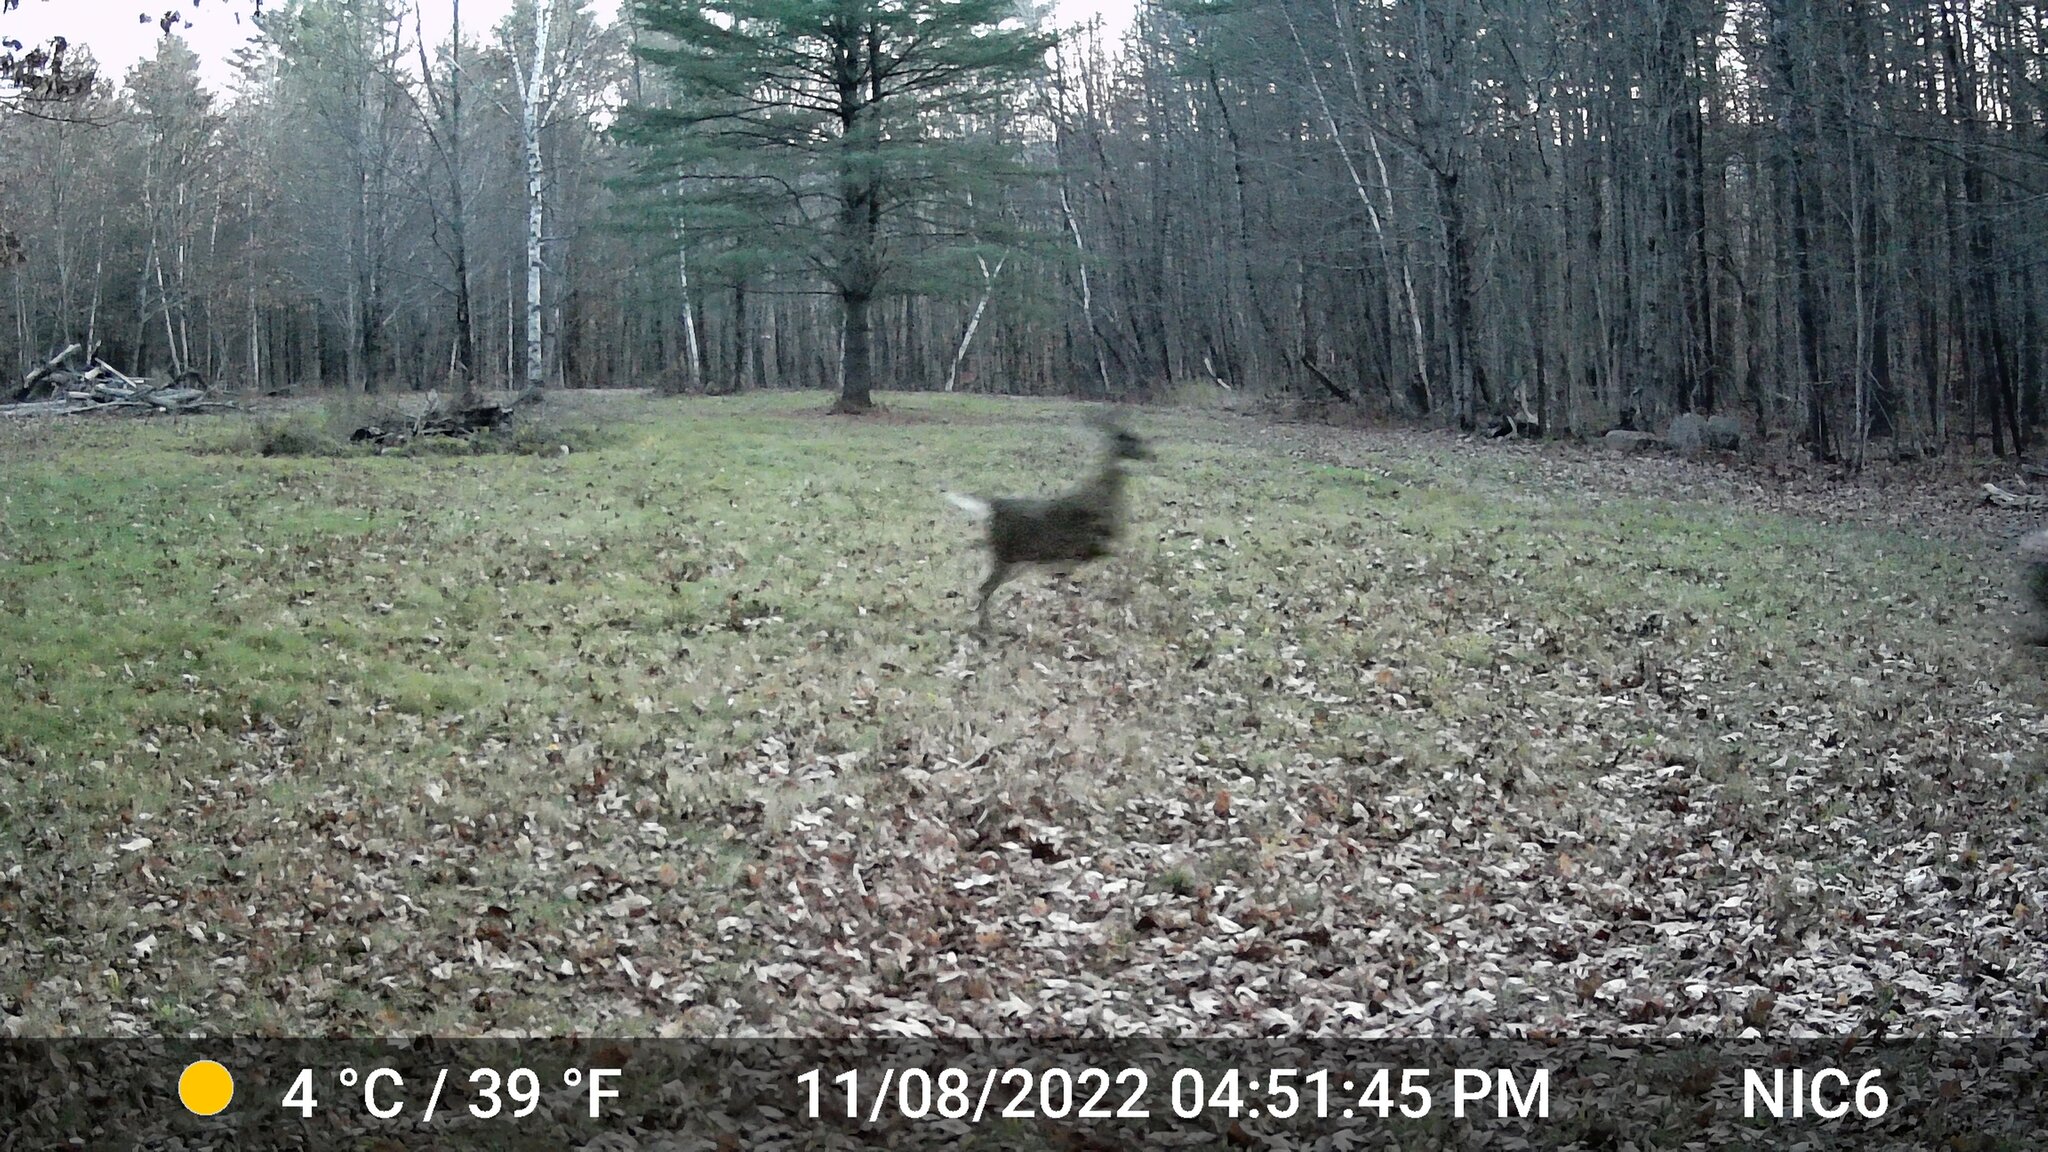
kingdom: Animalia
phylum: Chordata
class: Mammalia
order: Artiodactyla
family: Cervidae
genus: Odocoileus
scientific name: Odocoileus virginianus
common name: White-tailed deer
